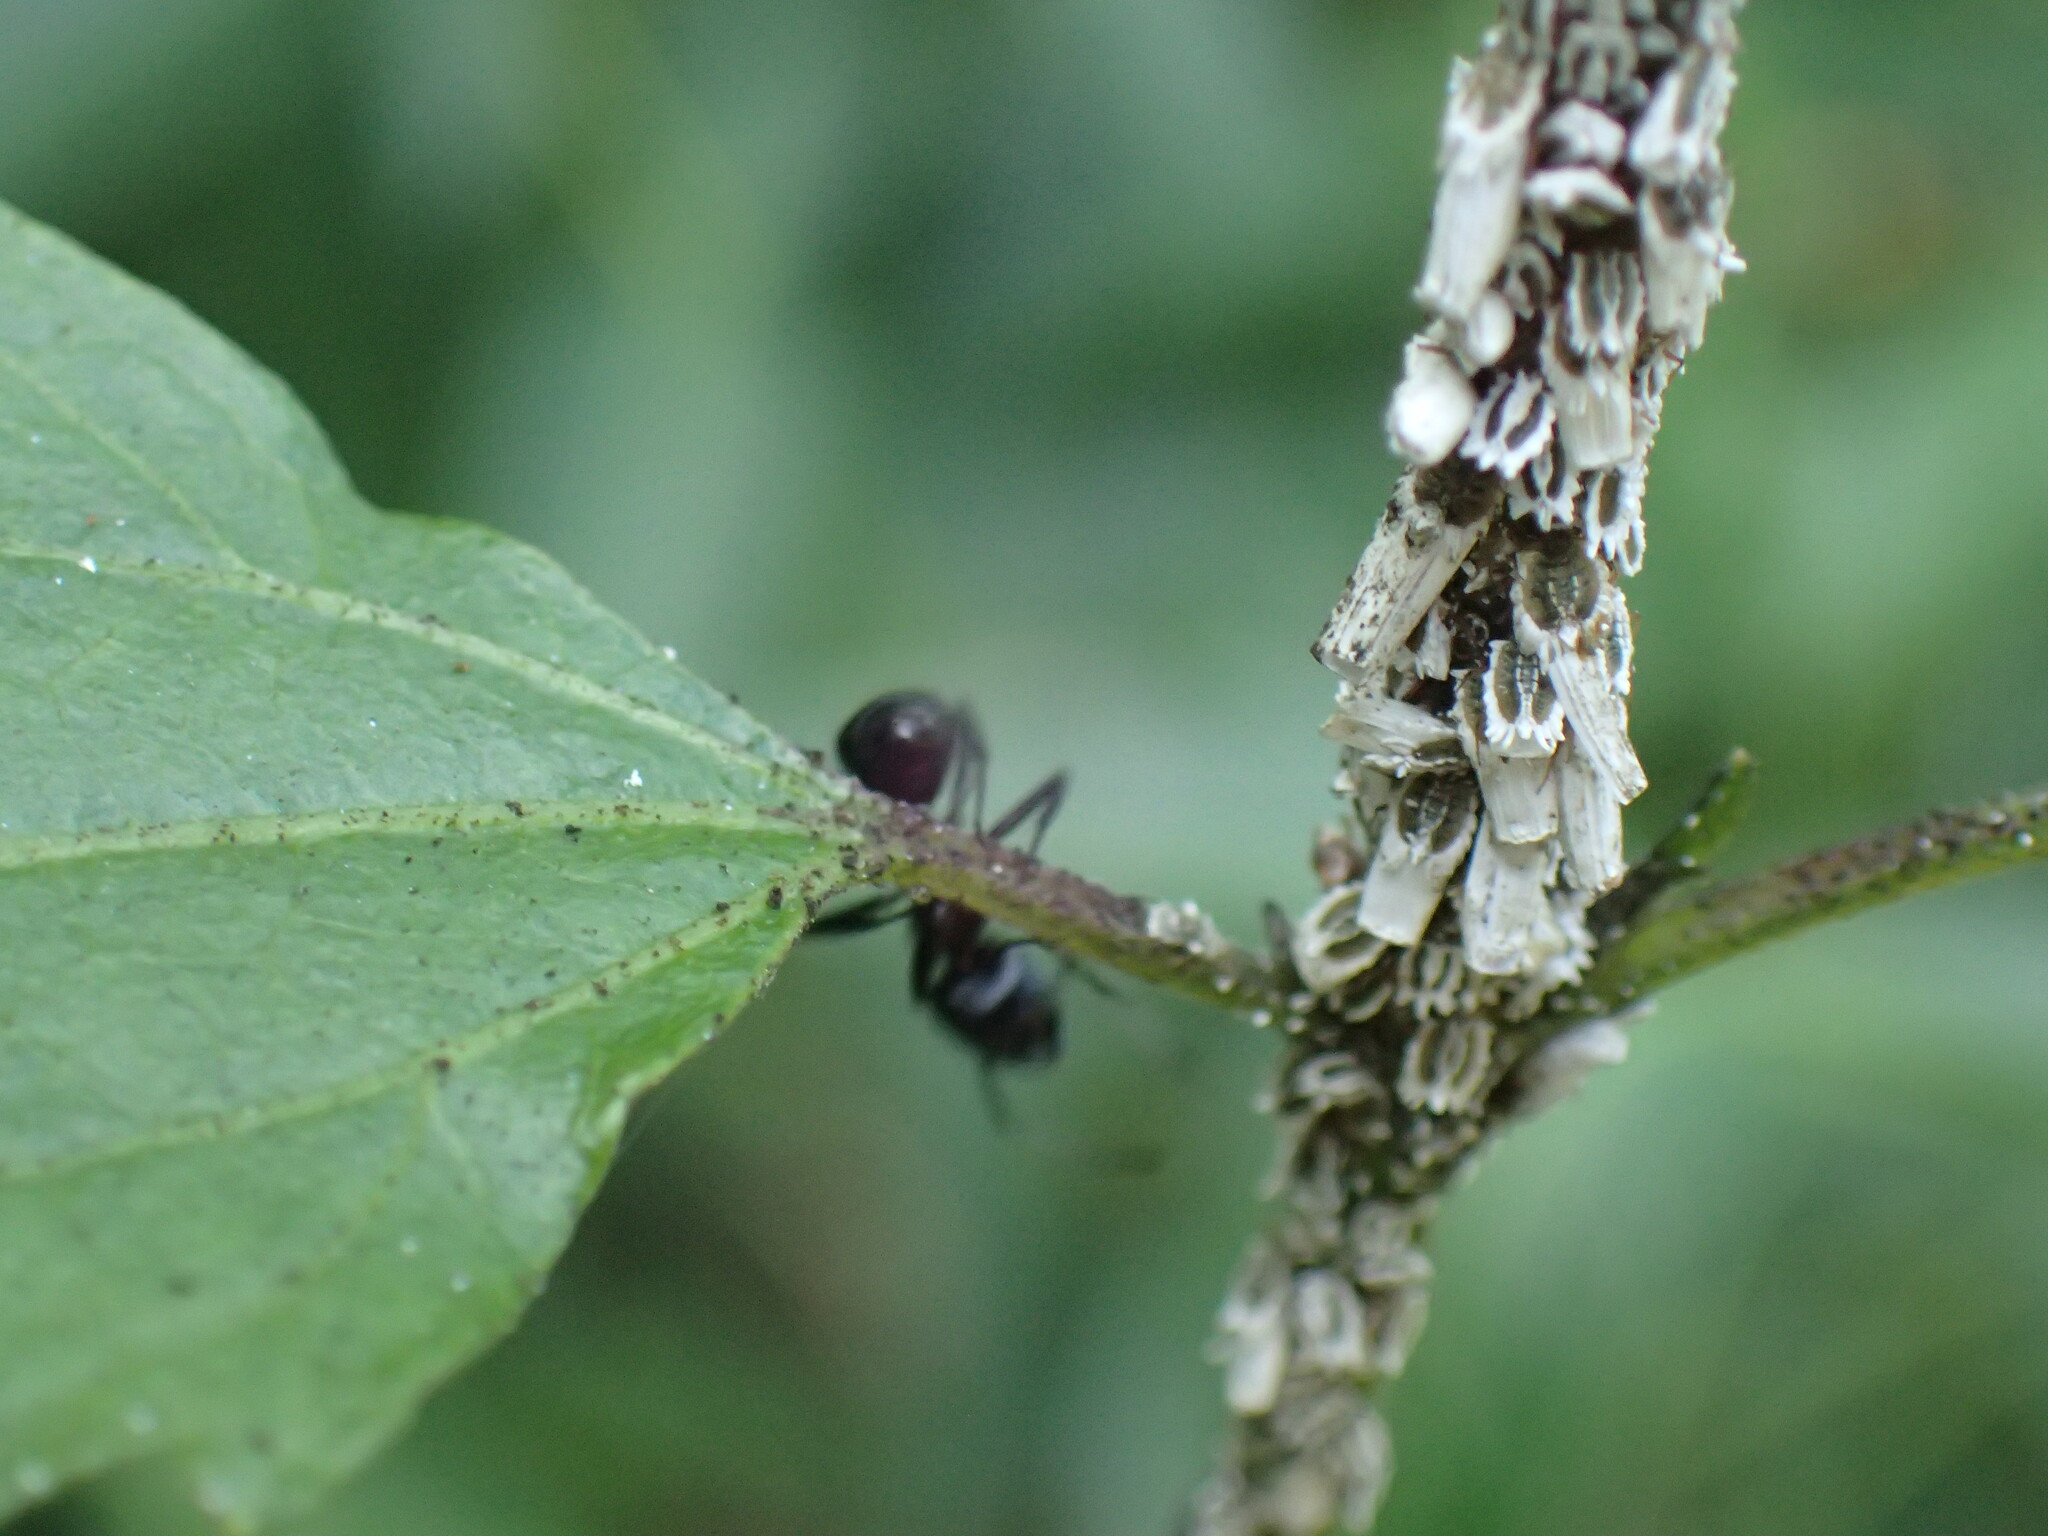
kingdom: Animalia
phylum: Arthropoda
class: Insecta
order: Hemiptera
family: Ortheziidae
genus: Insignorthezia
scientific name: Insignorthezia insignis
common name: Greenhouse orthezia
